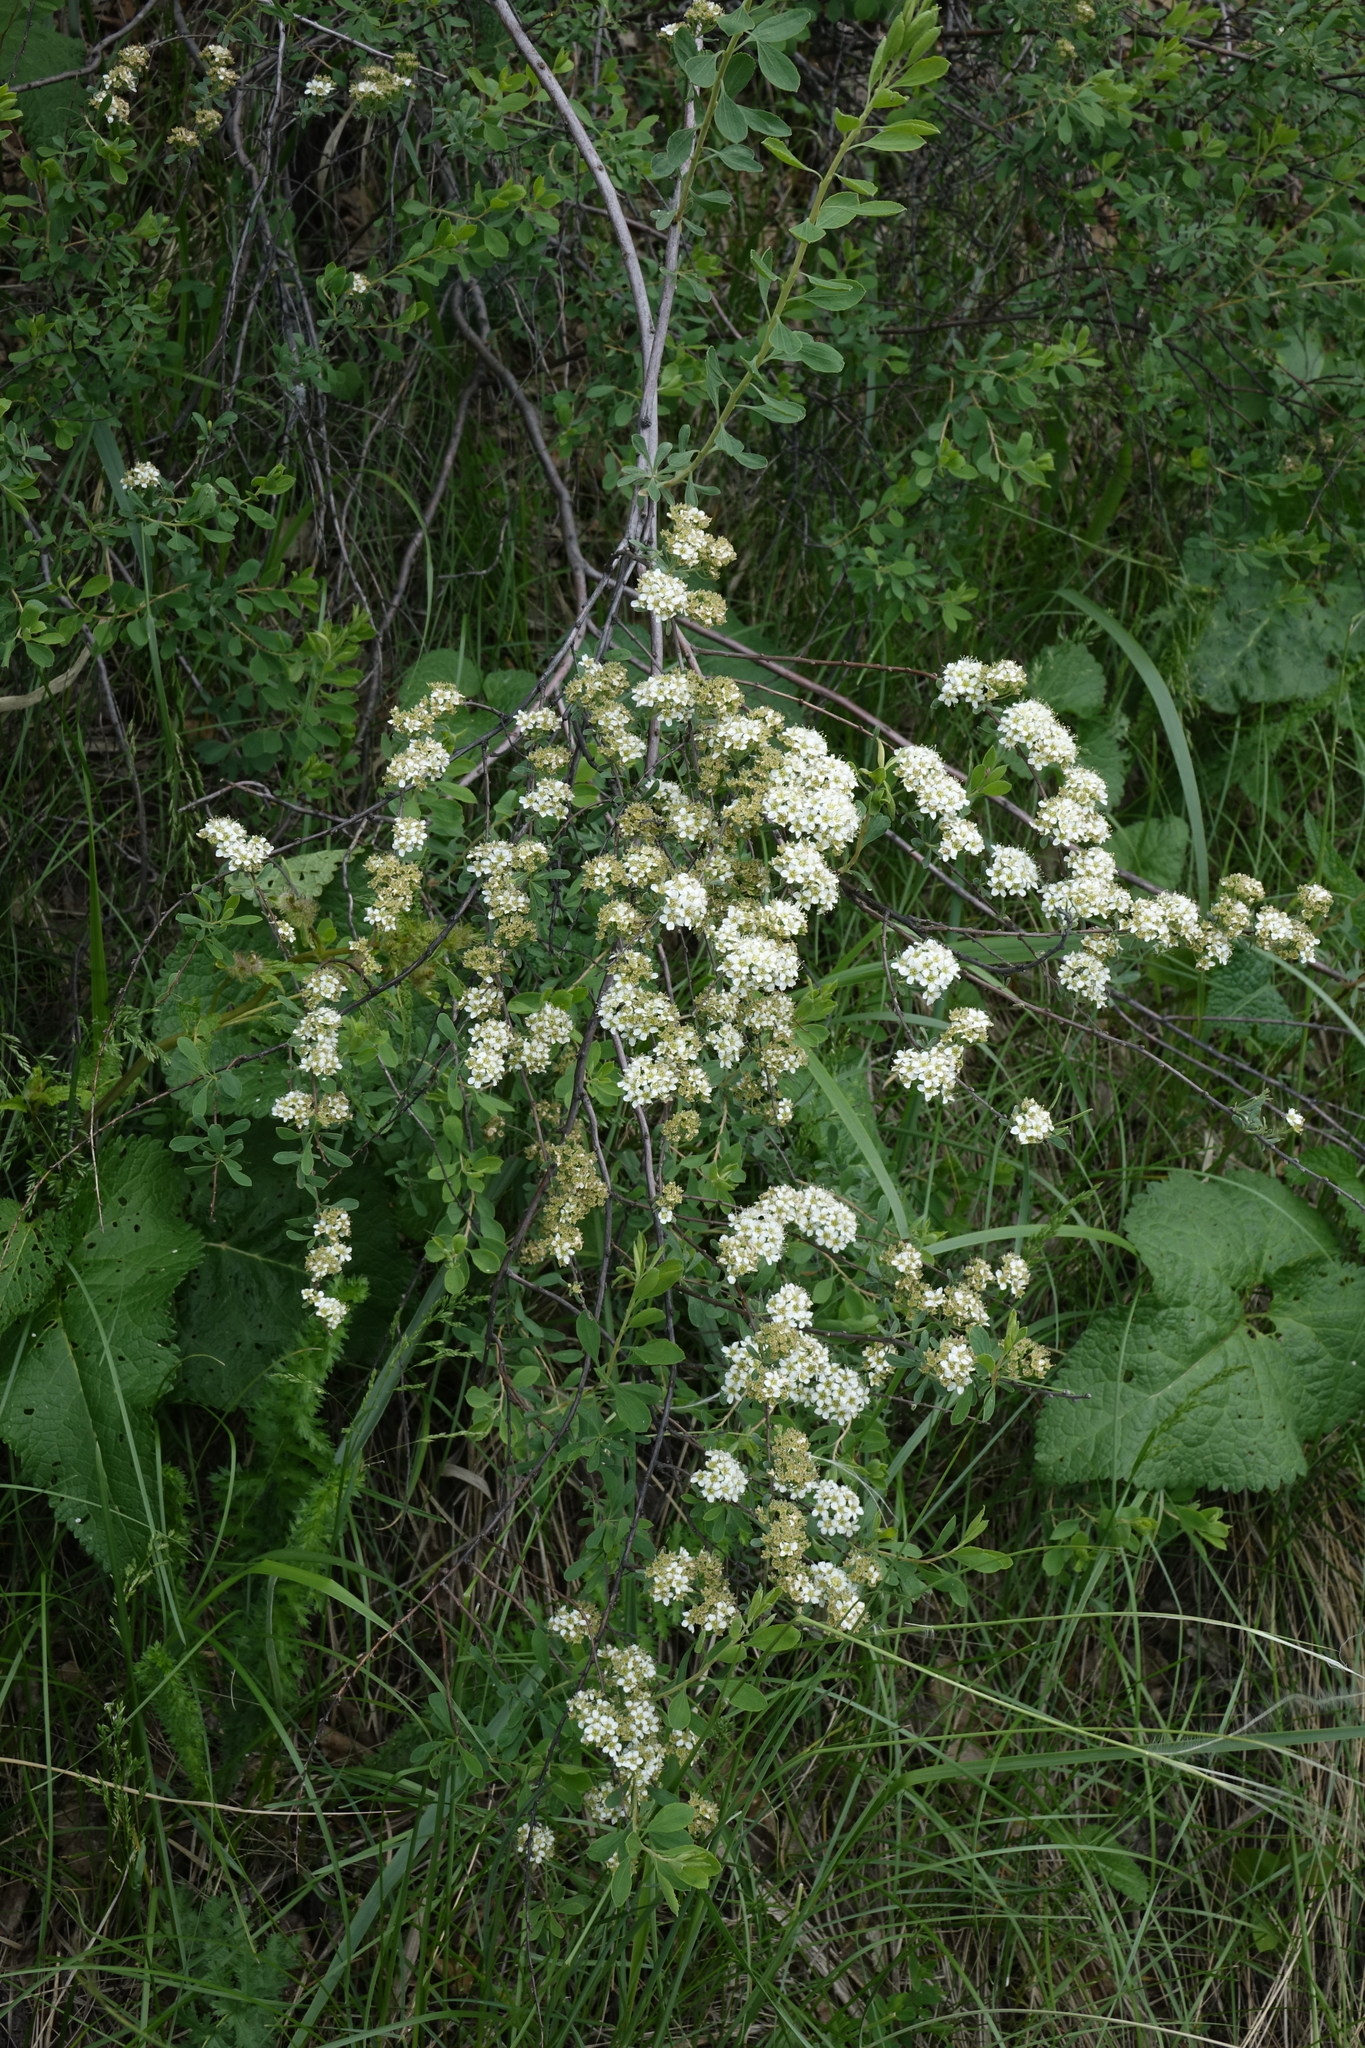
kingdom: Plantae
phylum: Tracheophyta
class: Magnoliopsida
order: Rosales
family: Rosaceae
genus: Spiraea
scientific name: Spiraea crenata
